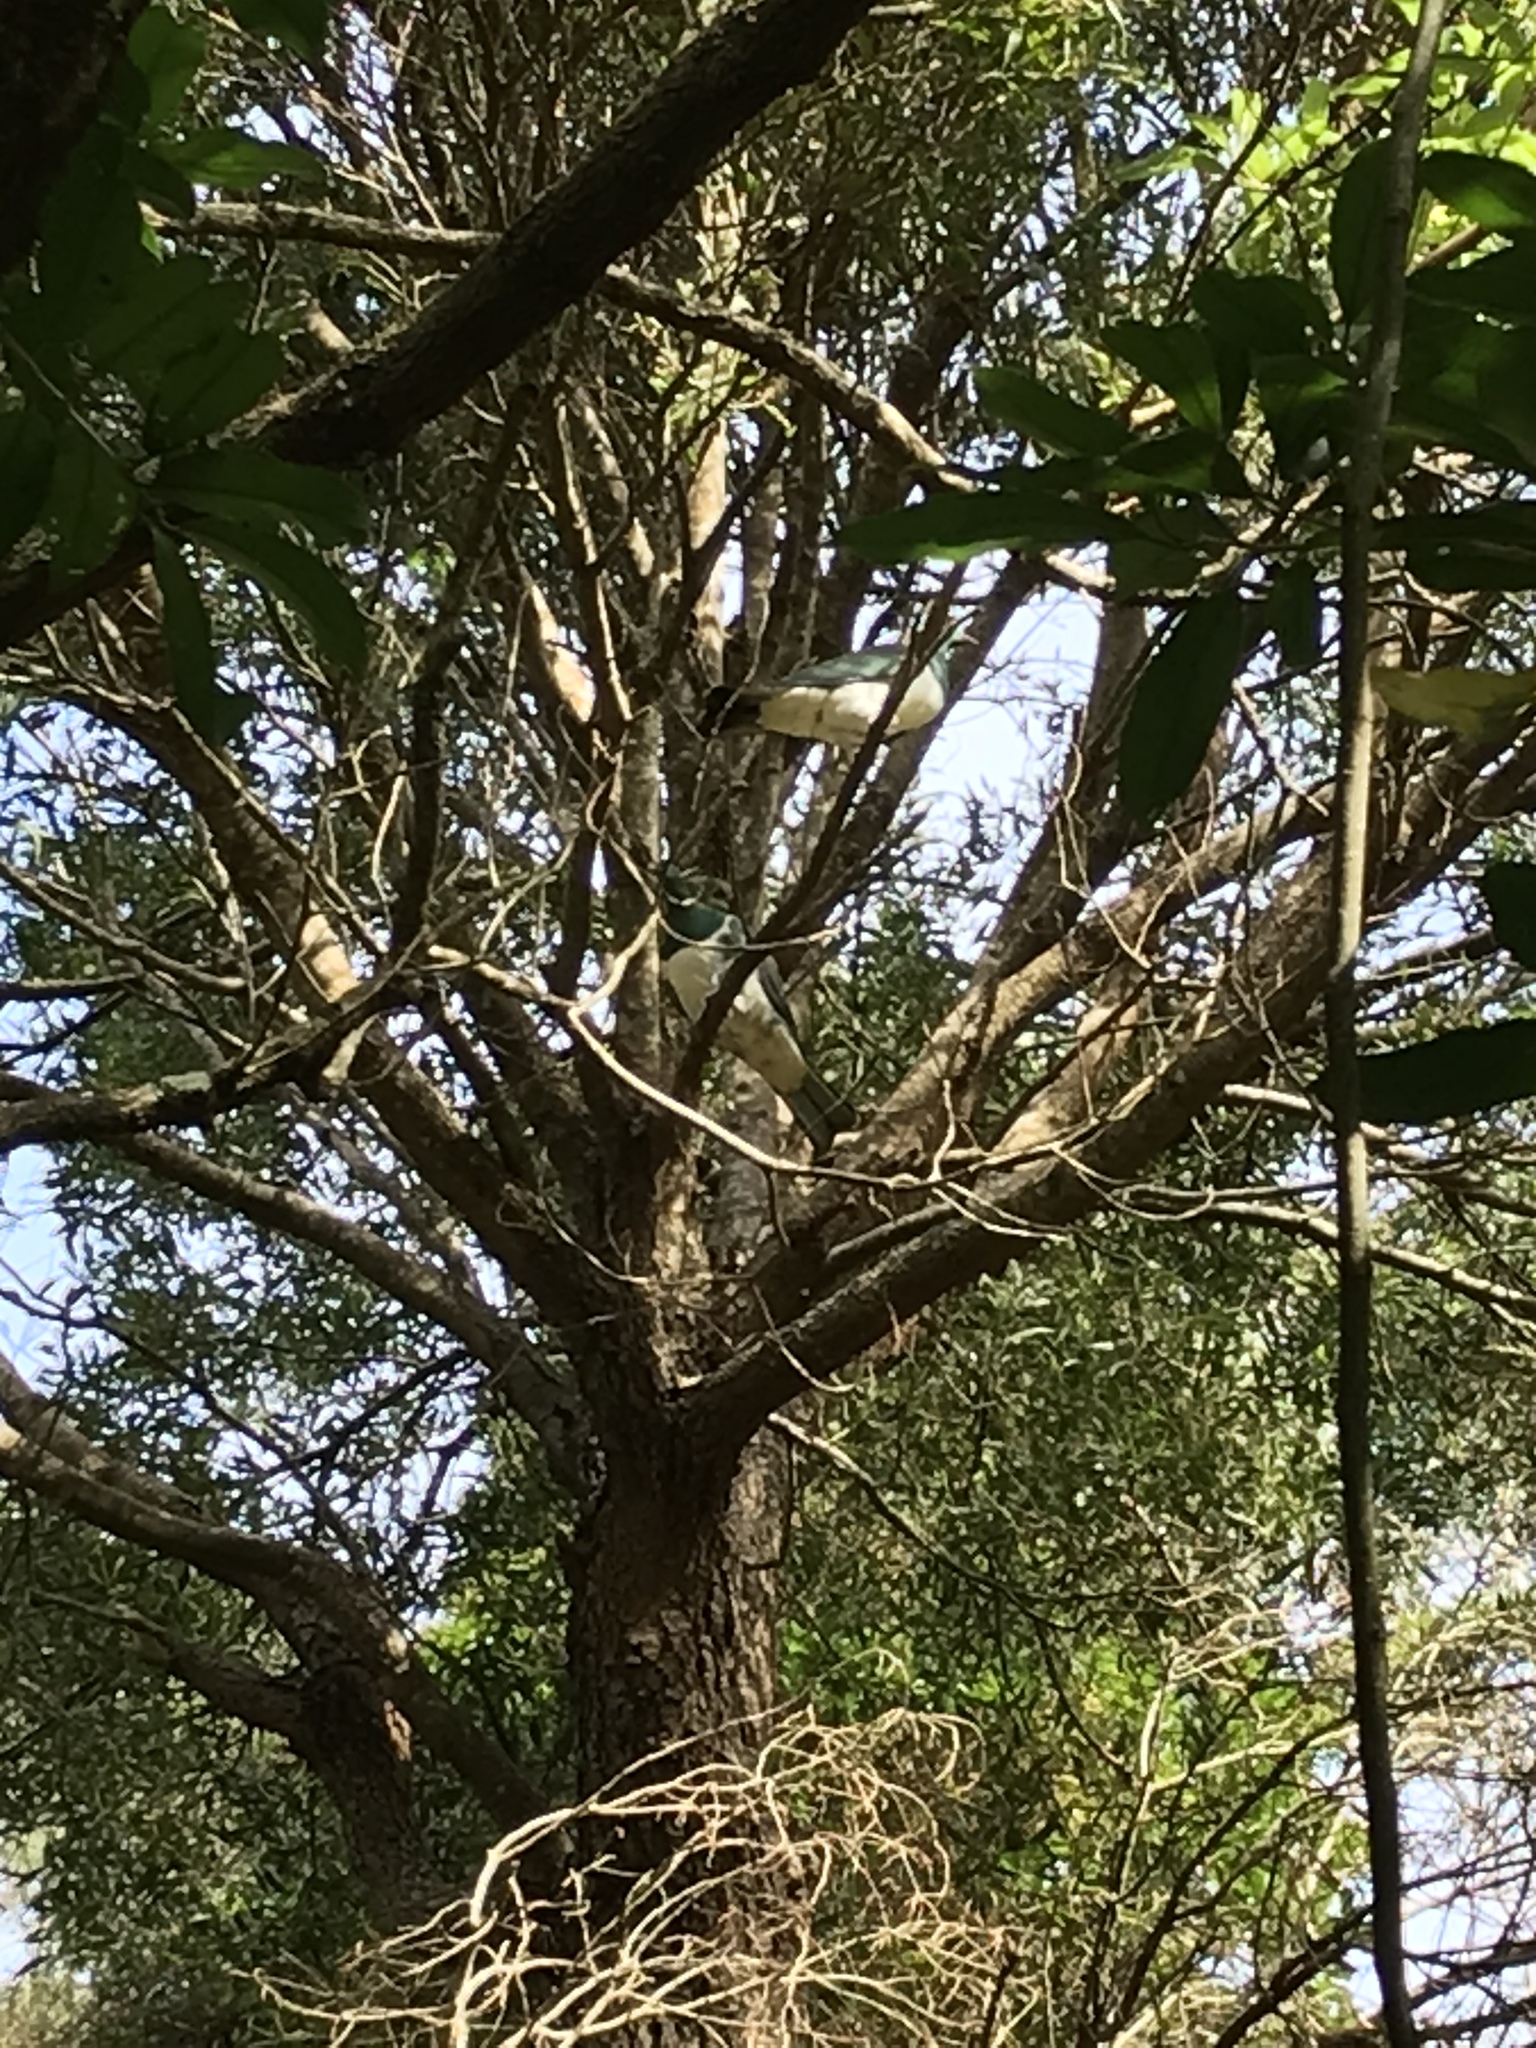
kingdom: Animalia
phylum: Chordata
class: Aves
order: Columbiformes
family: Columbidae
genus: Hemiphaga
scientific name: Hemiphaga novaeseelandiae
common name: New zealand pigeon
